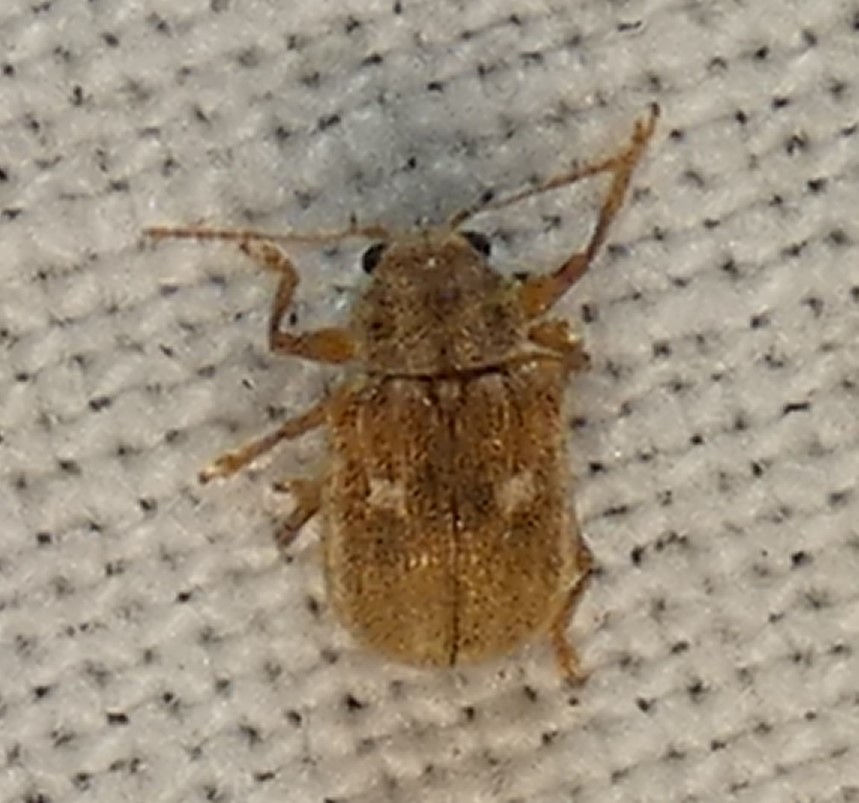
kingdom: Animalia
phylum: Arthropoda
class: Insecta
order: Coleoptera
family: Chrysomelidae
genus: Demotina
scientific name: Demotina modesta
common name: Leaf beetle
